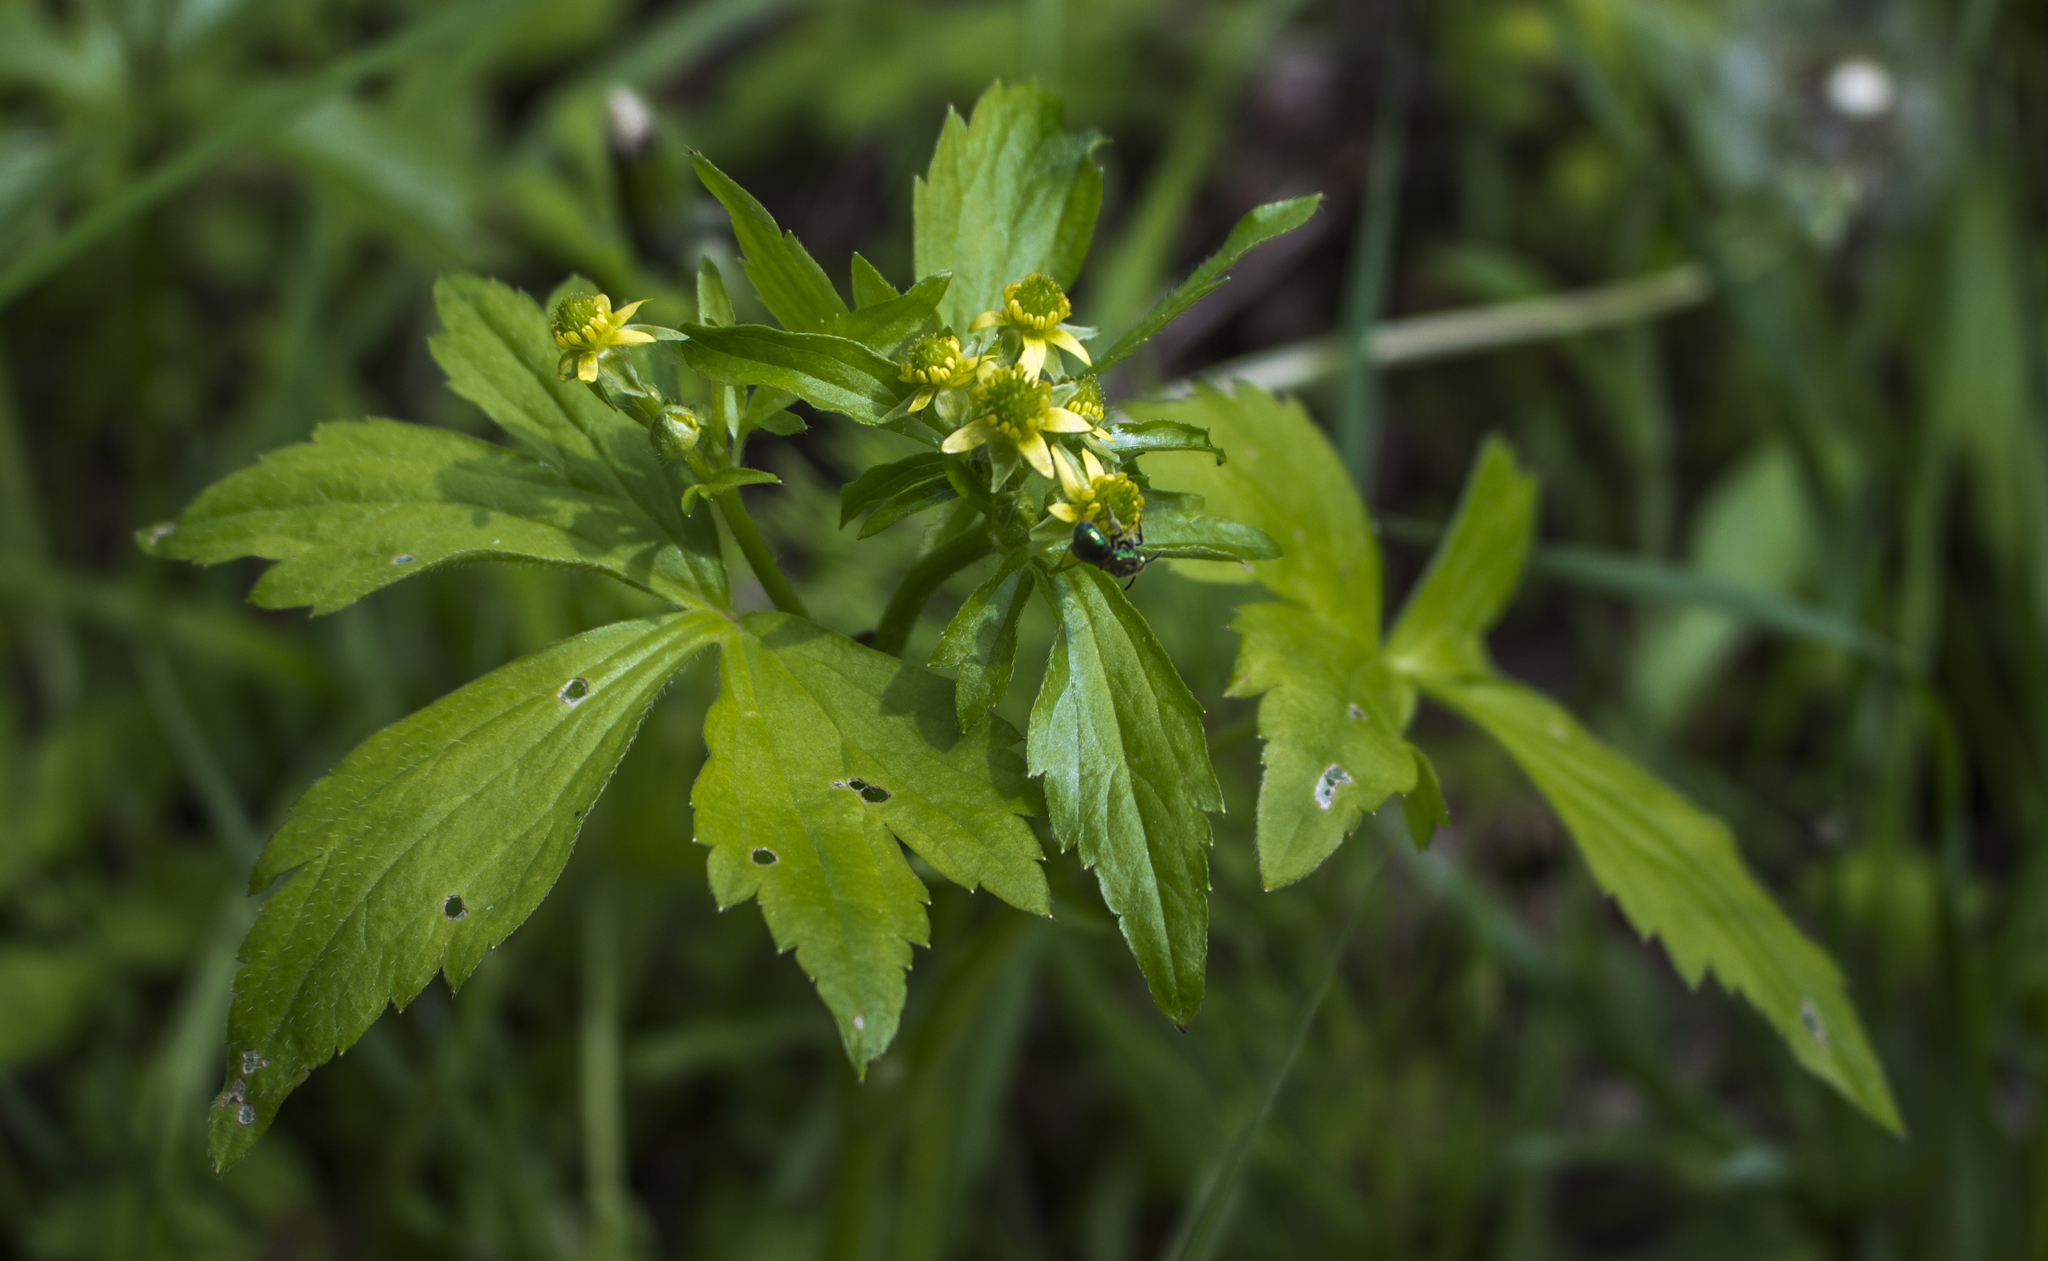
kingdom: Plantae
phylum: Tracheophyta
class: Magnoliopsida
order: Ranunculales
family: Ranunculaceae
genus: Ranunculus
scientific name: Ranunculus recurvatus
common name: Blisterwort
